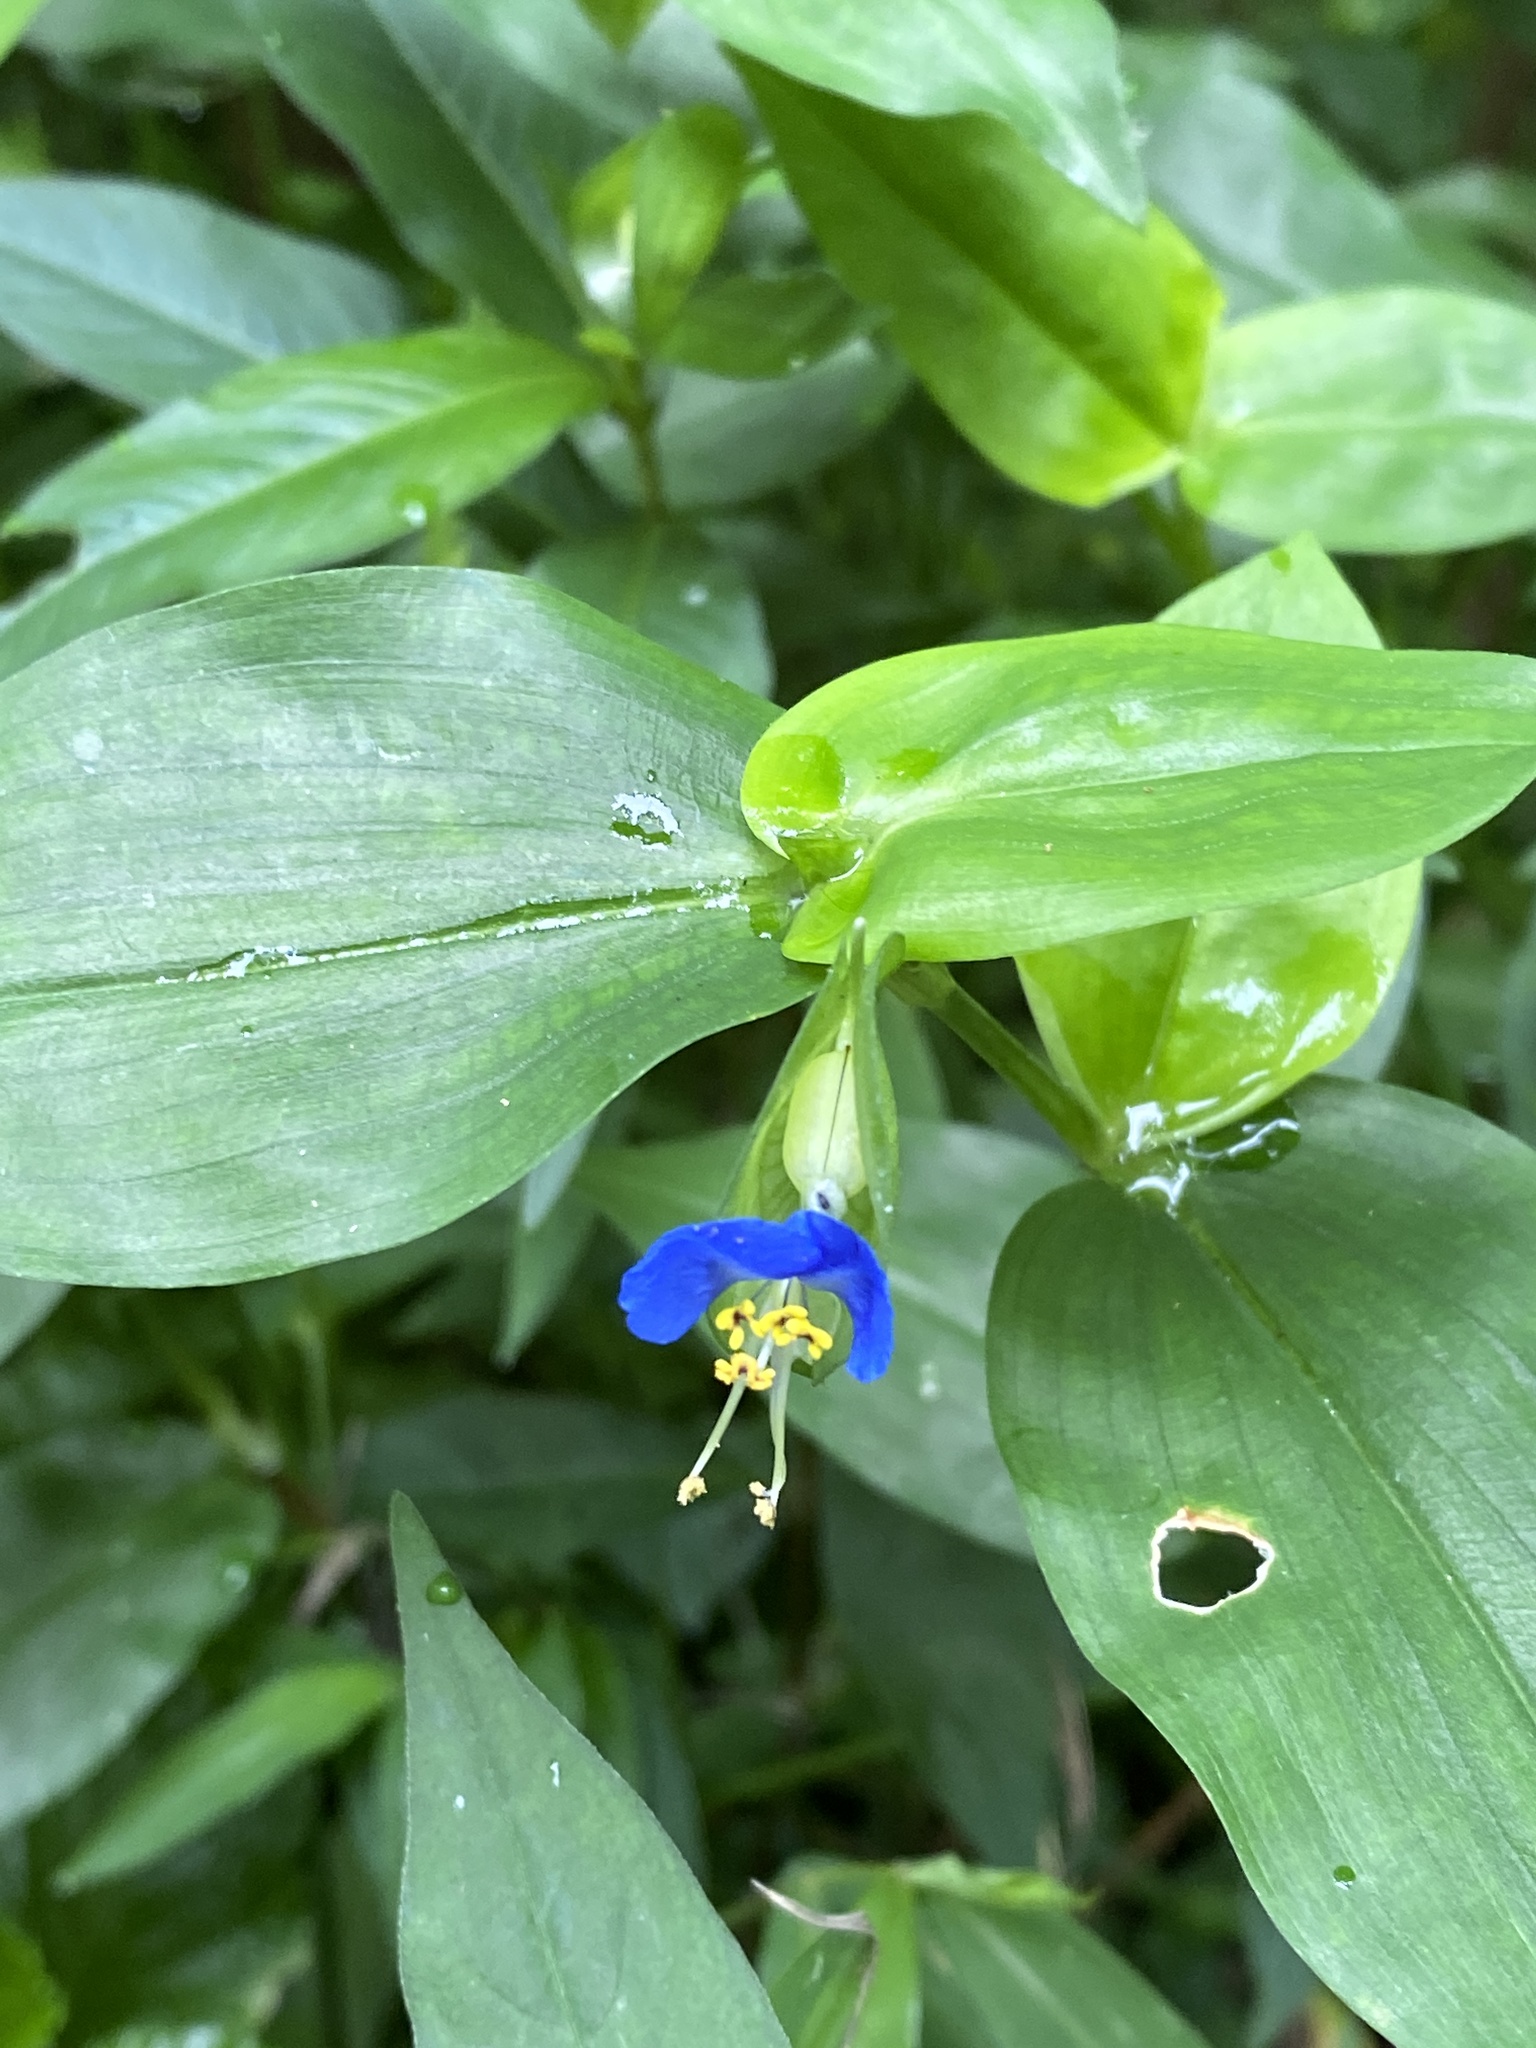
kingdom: Plantae
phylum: Tracheophyta
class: Liliopsida
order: Commelinales
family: Commelinaceae
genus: Commelina
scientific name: Commelina communis
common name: Asiatic dayflower
